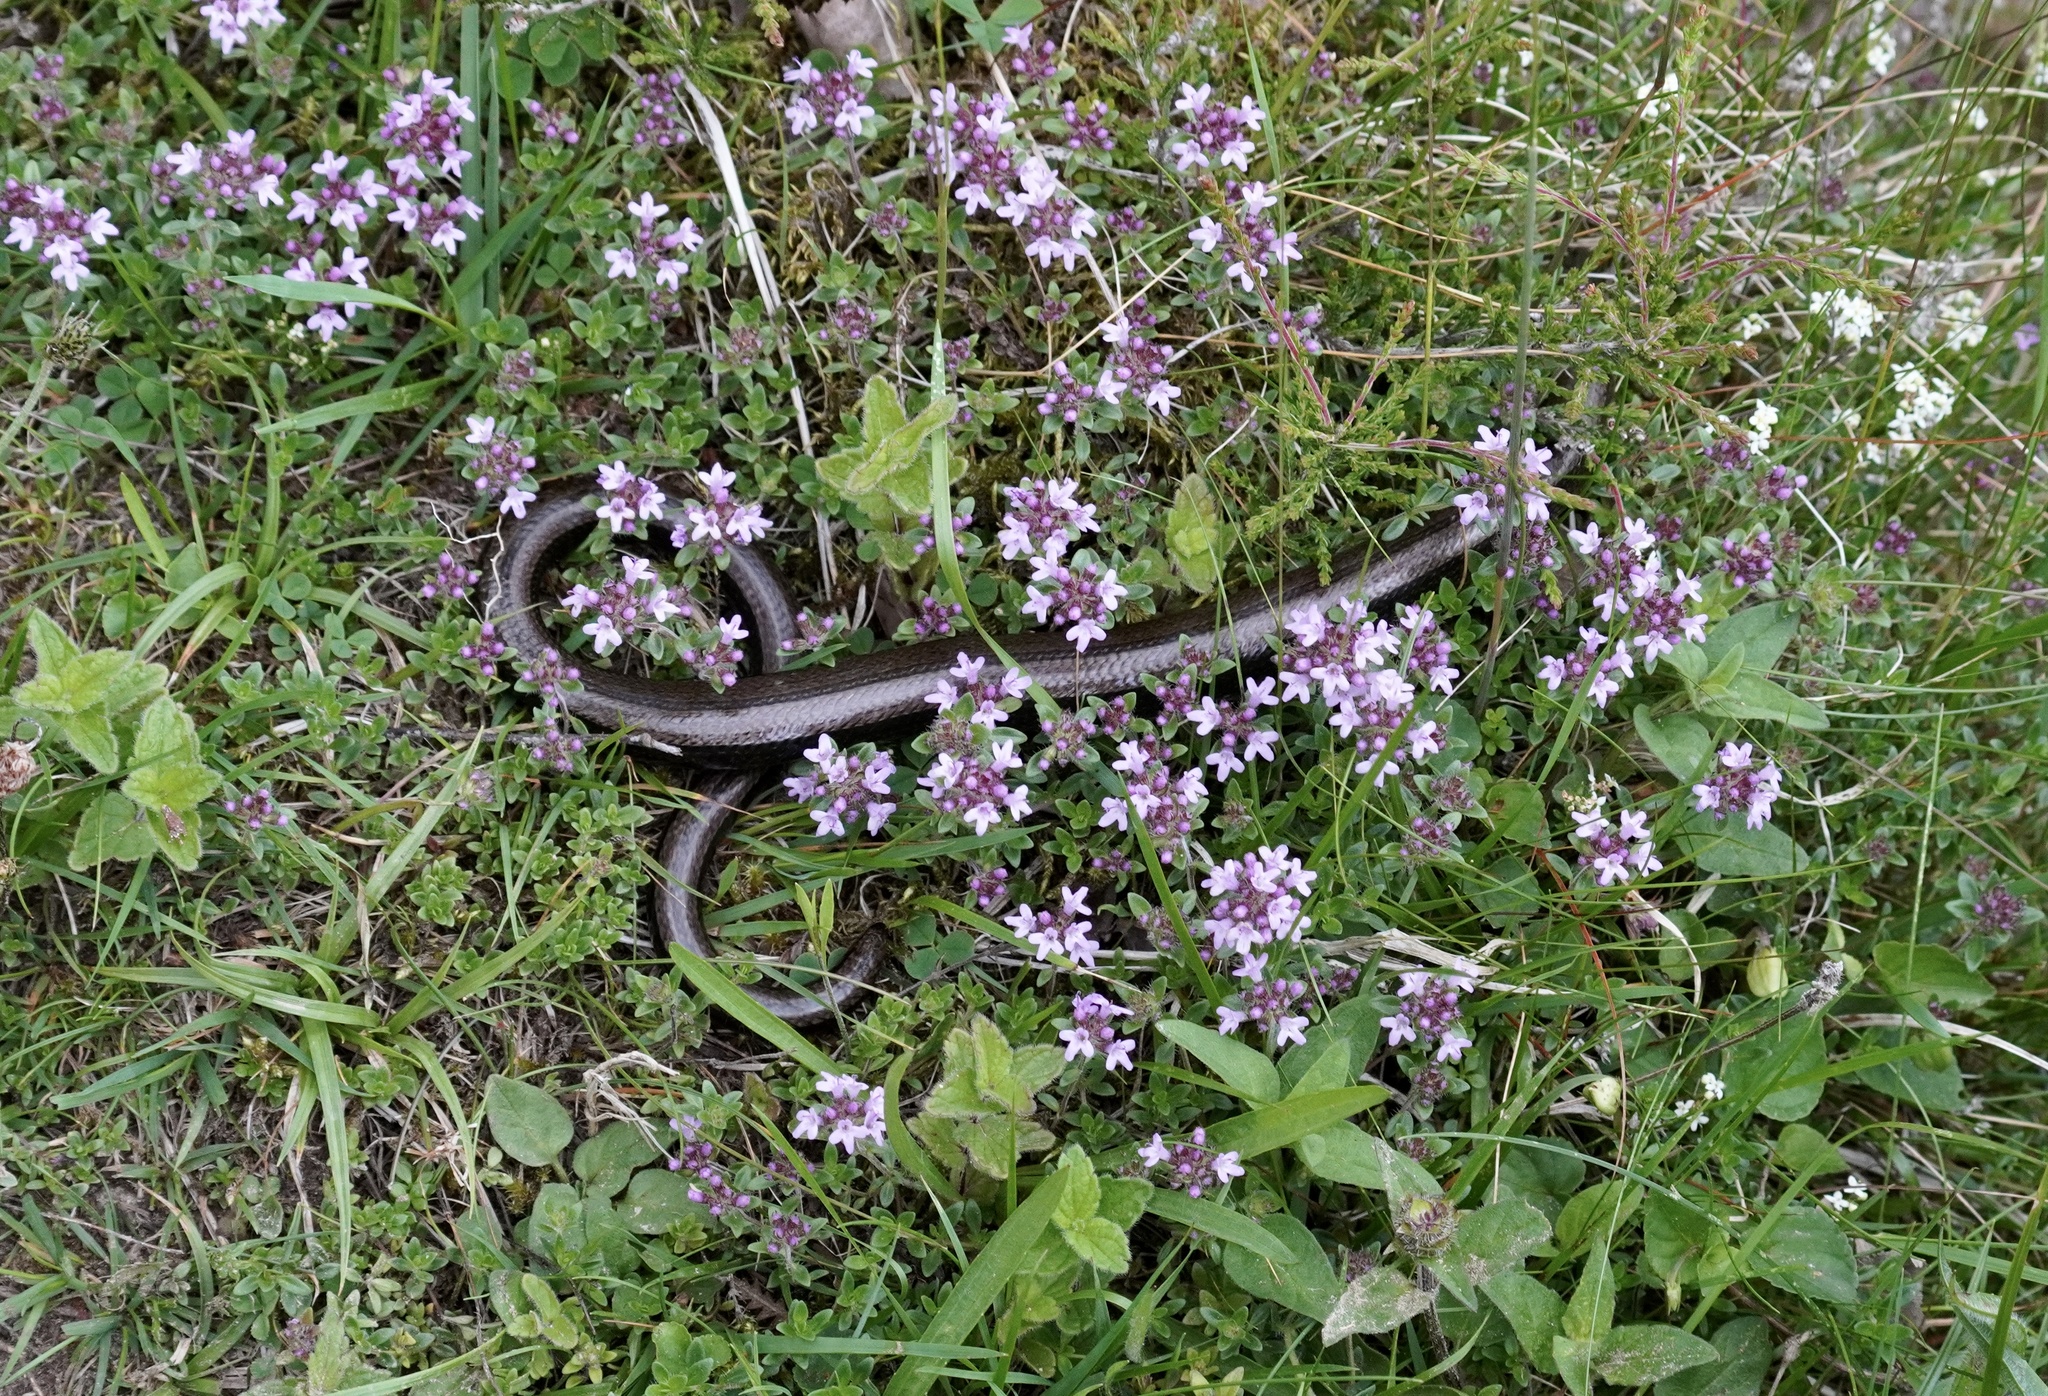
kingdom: Animalia
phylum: Chordata
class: Squamata
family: Anguidae
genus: Anguis
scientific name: Anguis fragilis
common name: Slow worm
